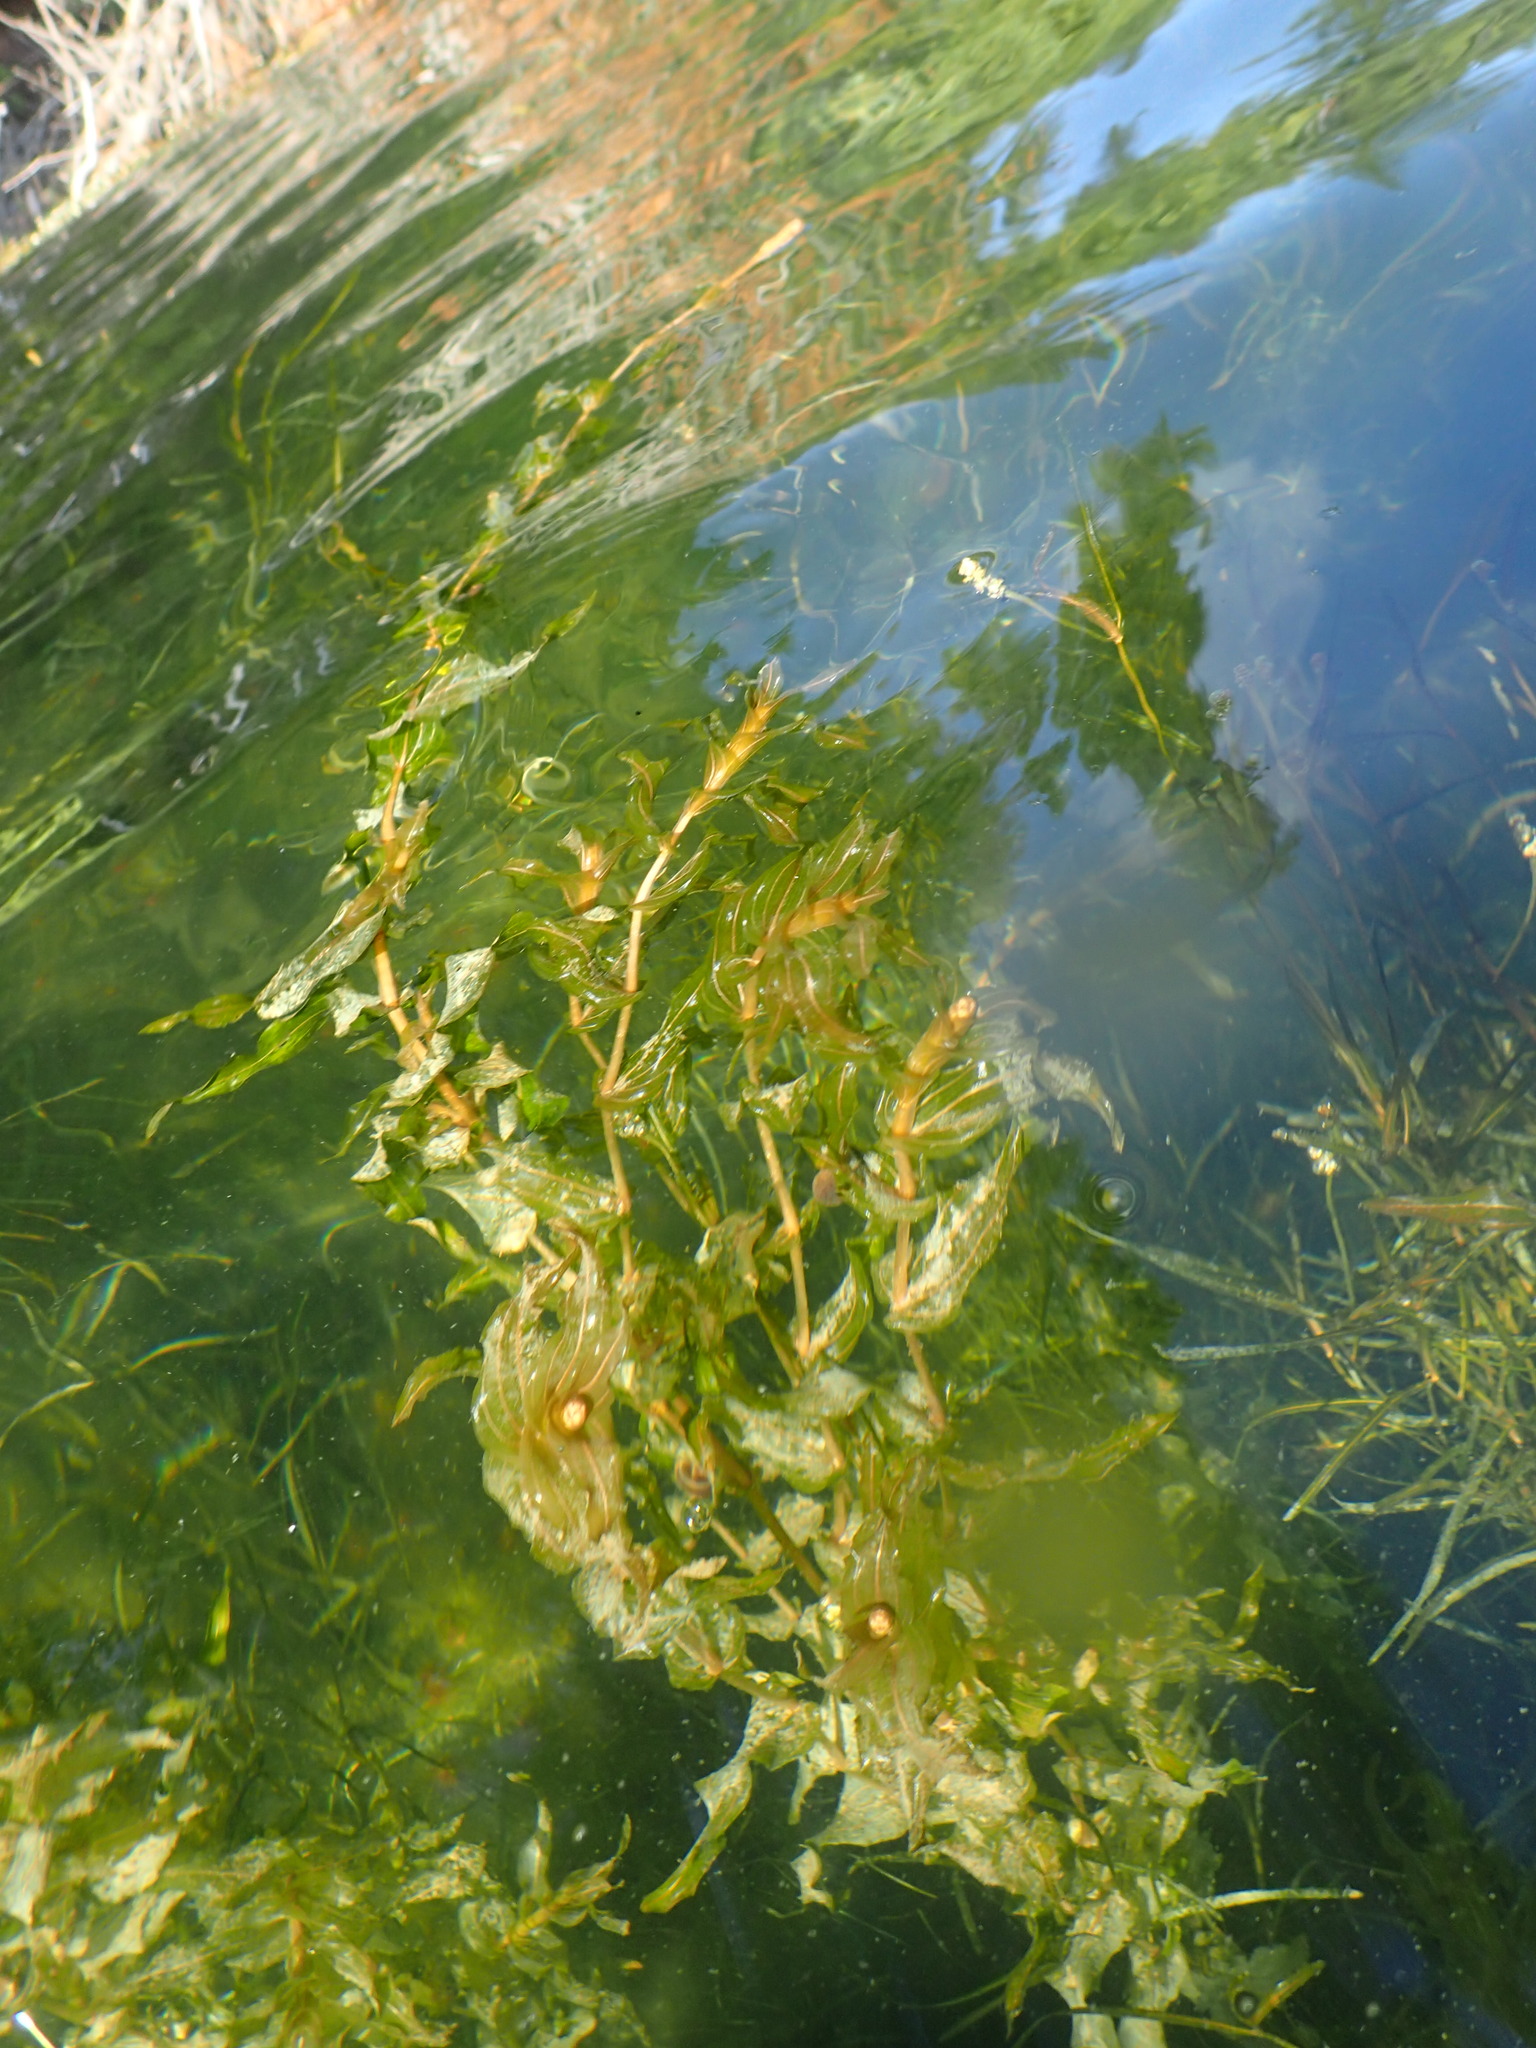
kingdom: Plantae
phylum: Tracheophyta
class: Liliopsida
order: Alismatales
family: Potamogetonaceae
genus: Potamogeton
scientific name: Potamogeton richardsonii
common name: Richardson's pondweed
